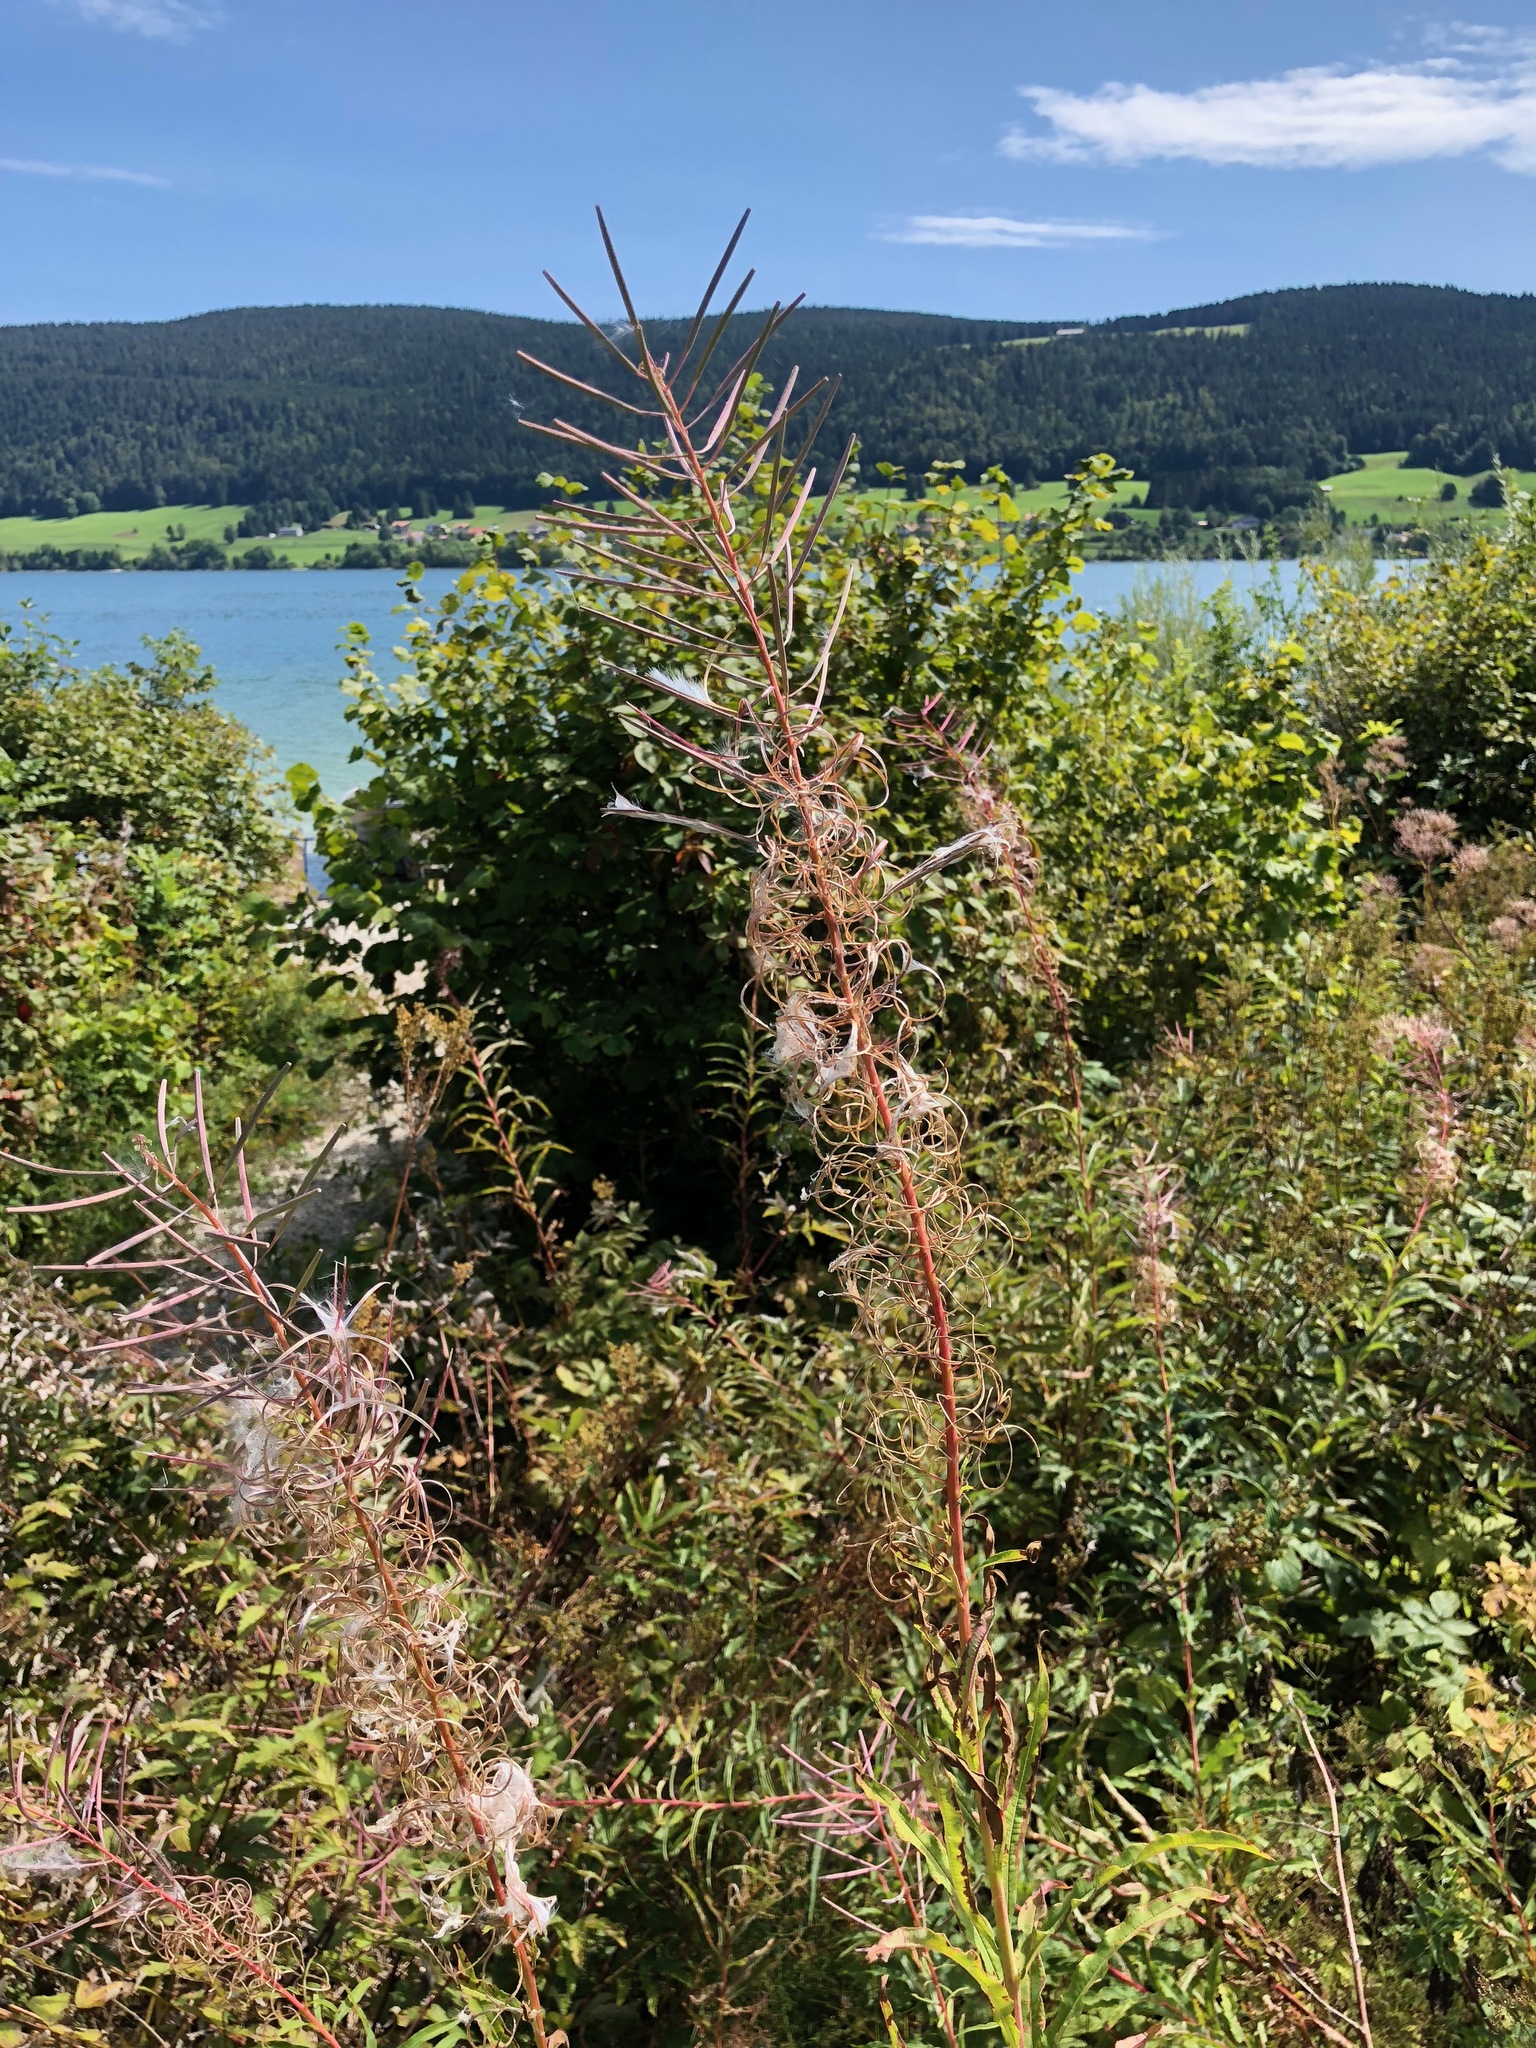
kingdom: Plantae
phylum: Tracheophyta
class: Magnoliopsida
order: Myrtales
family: Onagraceae
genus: Chamaenerion
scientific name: Chamaenerion angustifolium
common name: Fireweed
